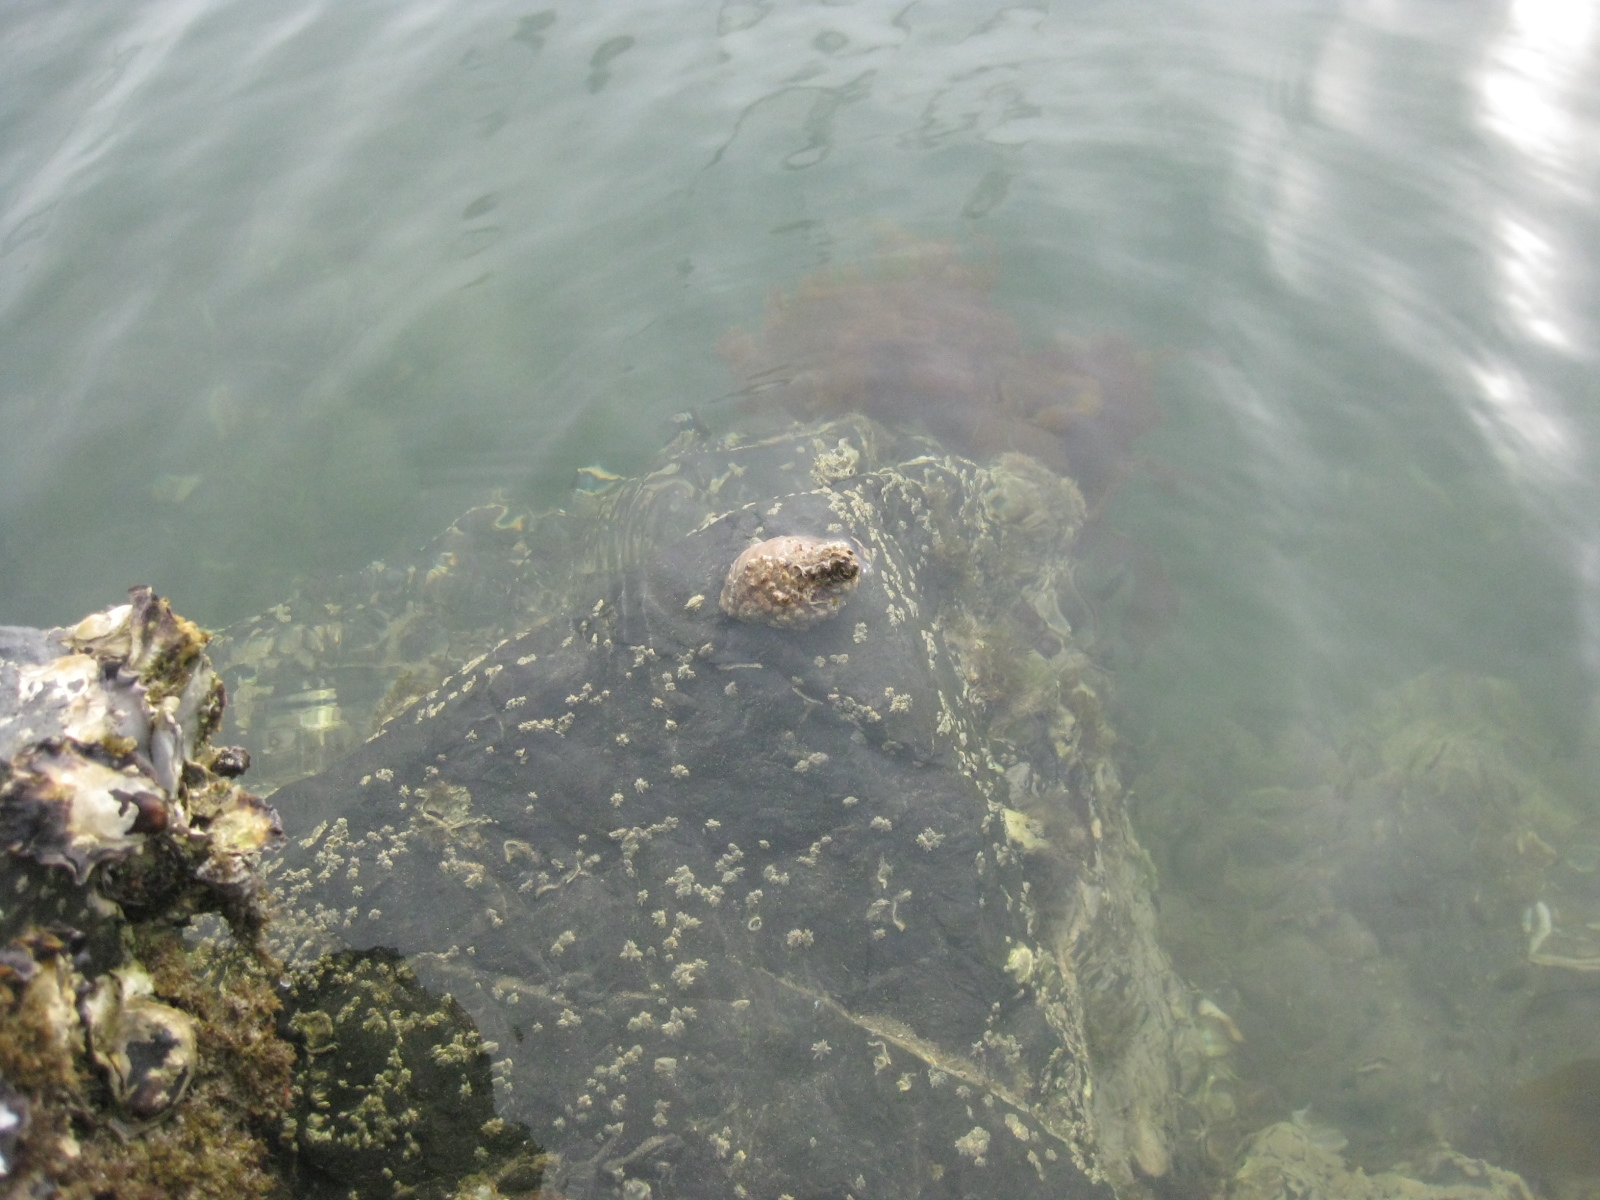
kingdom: Animalia
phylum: Mollusca
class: Gastropoda
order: Neogastropoda
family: Muricidae
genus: Dicathais
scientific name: Dicathais orbita
